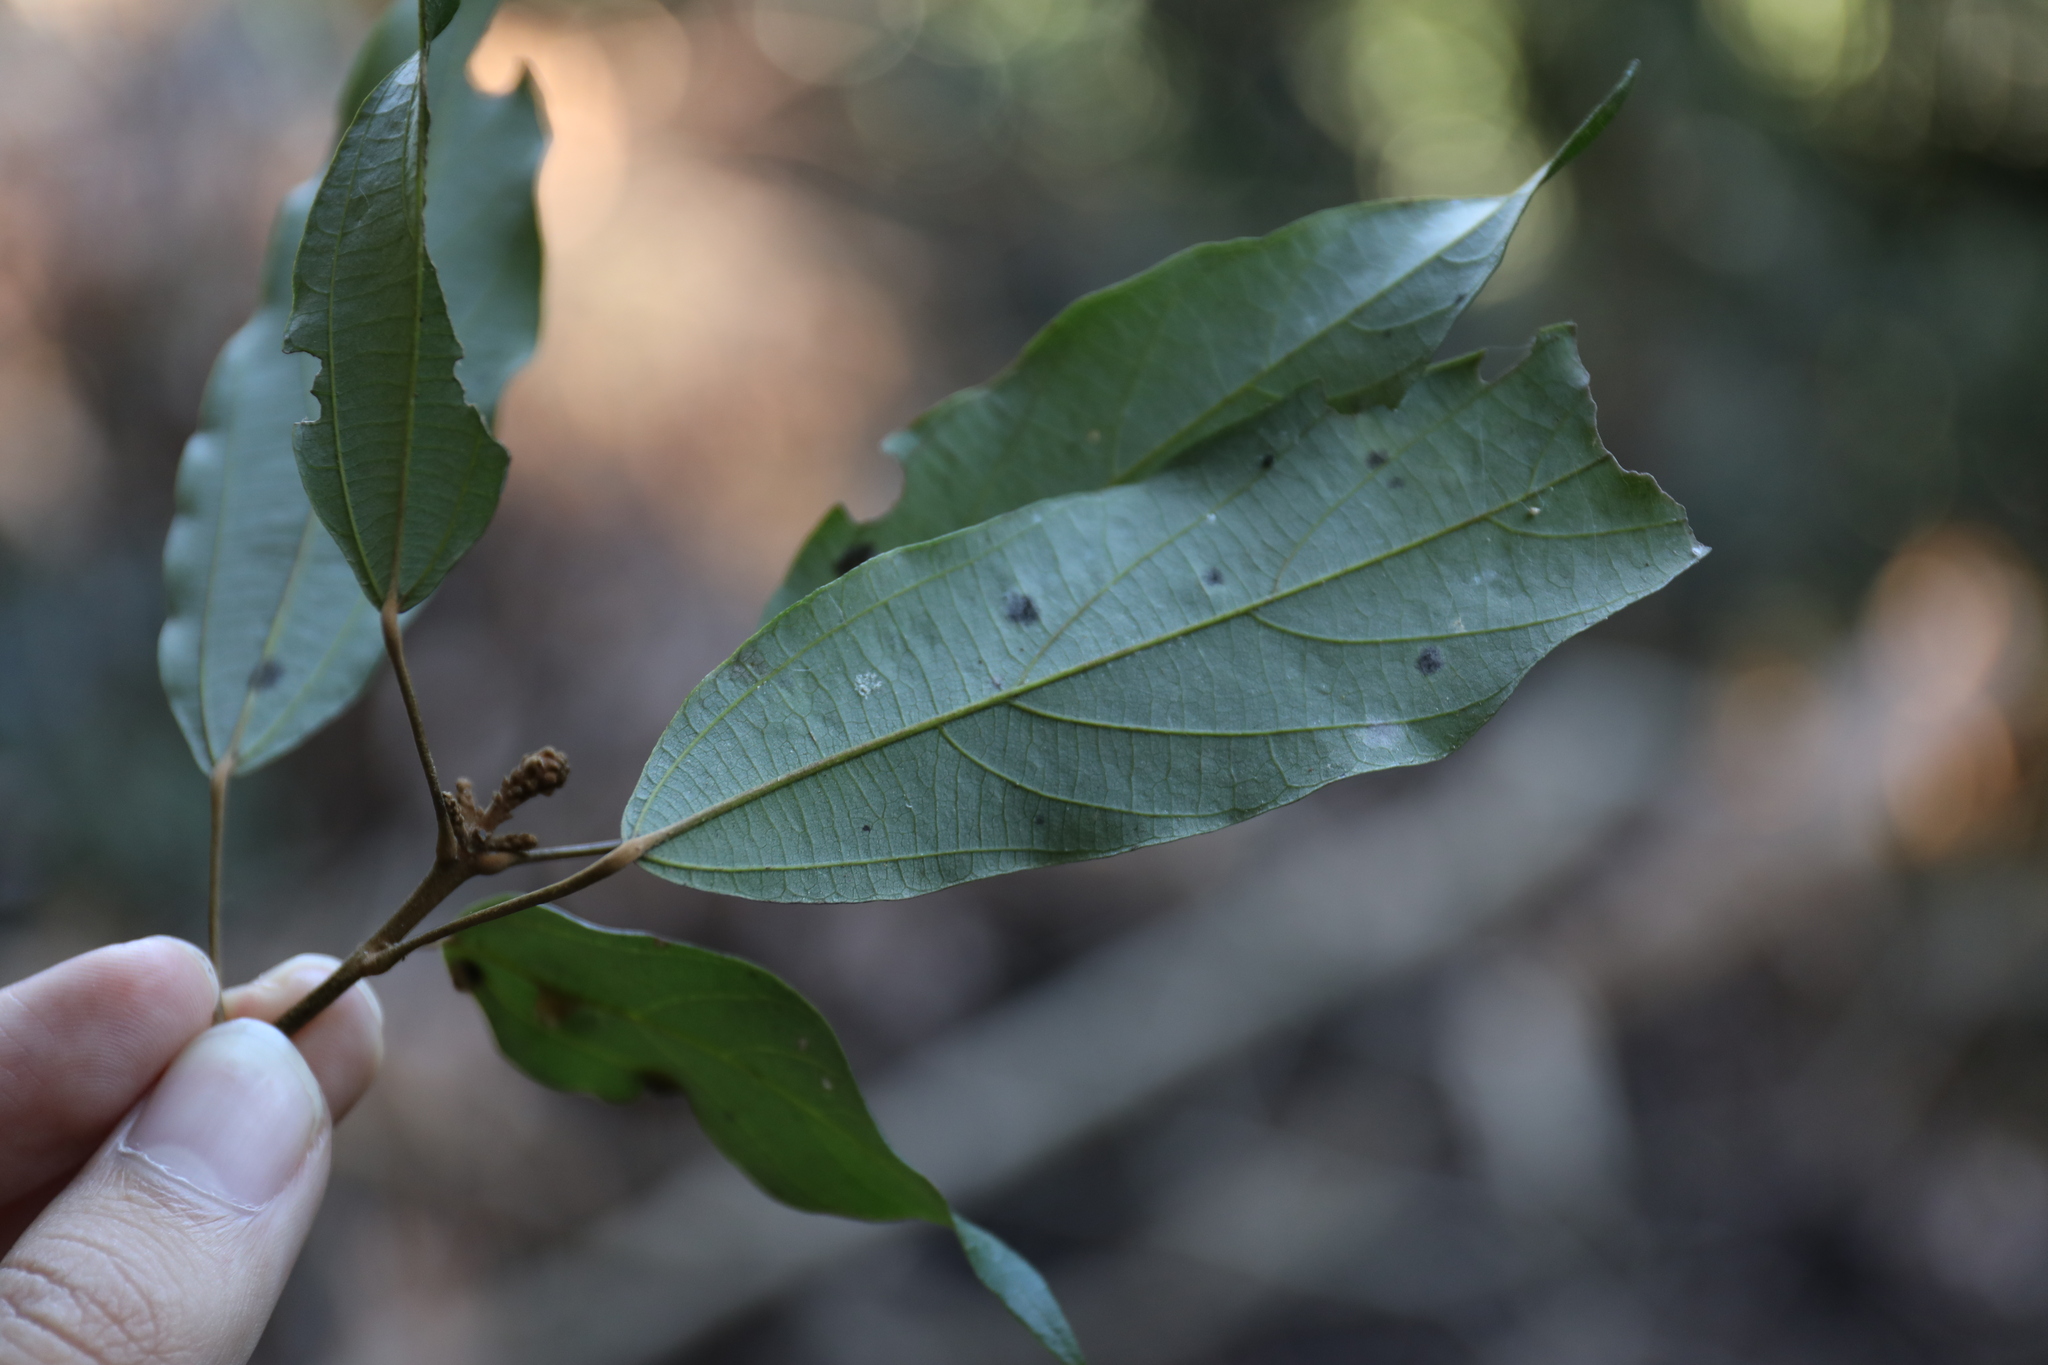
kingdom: Plantae
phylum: Tracheophyta
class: Magnoliopsida
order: Malpighiales
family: Euphorbiaceae
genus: Mallotus
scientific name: Mallotus philippensis
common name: Kamala tree
